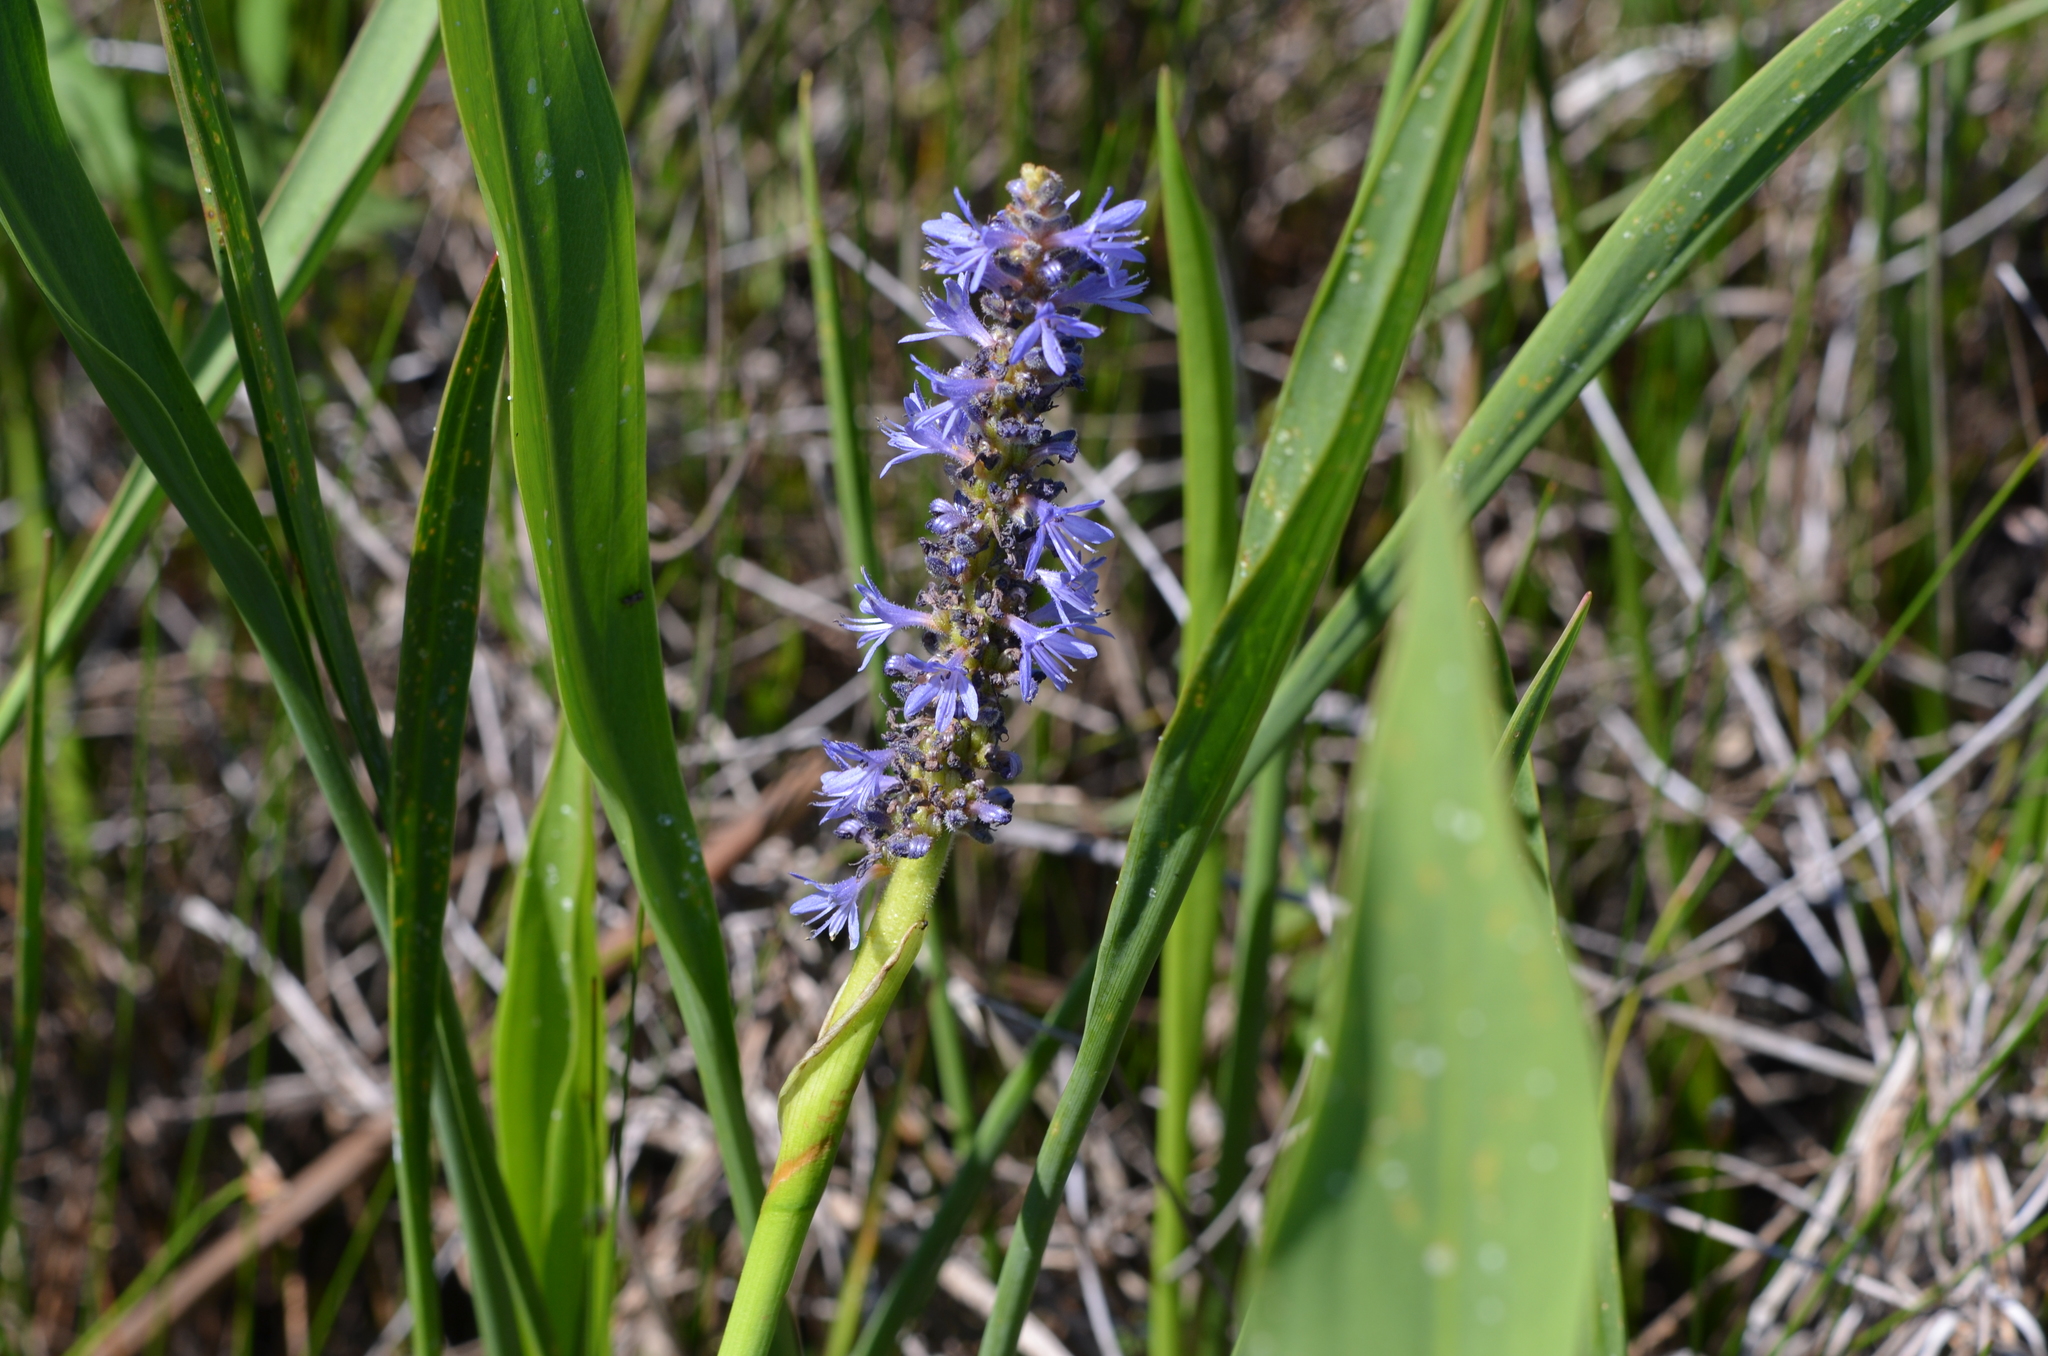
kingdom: Plantae
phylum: Tracheophyta
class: Liliopsida
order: Commelinales
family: Pontederiaceae
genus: Pontederia
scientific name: Pontederia cordata
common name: Pickerelweed
